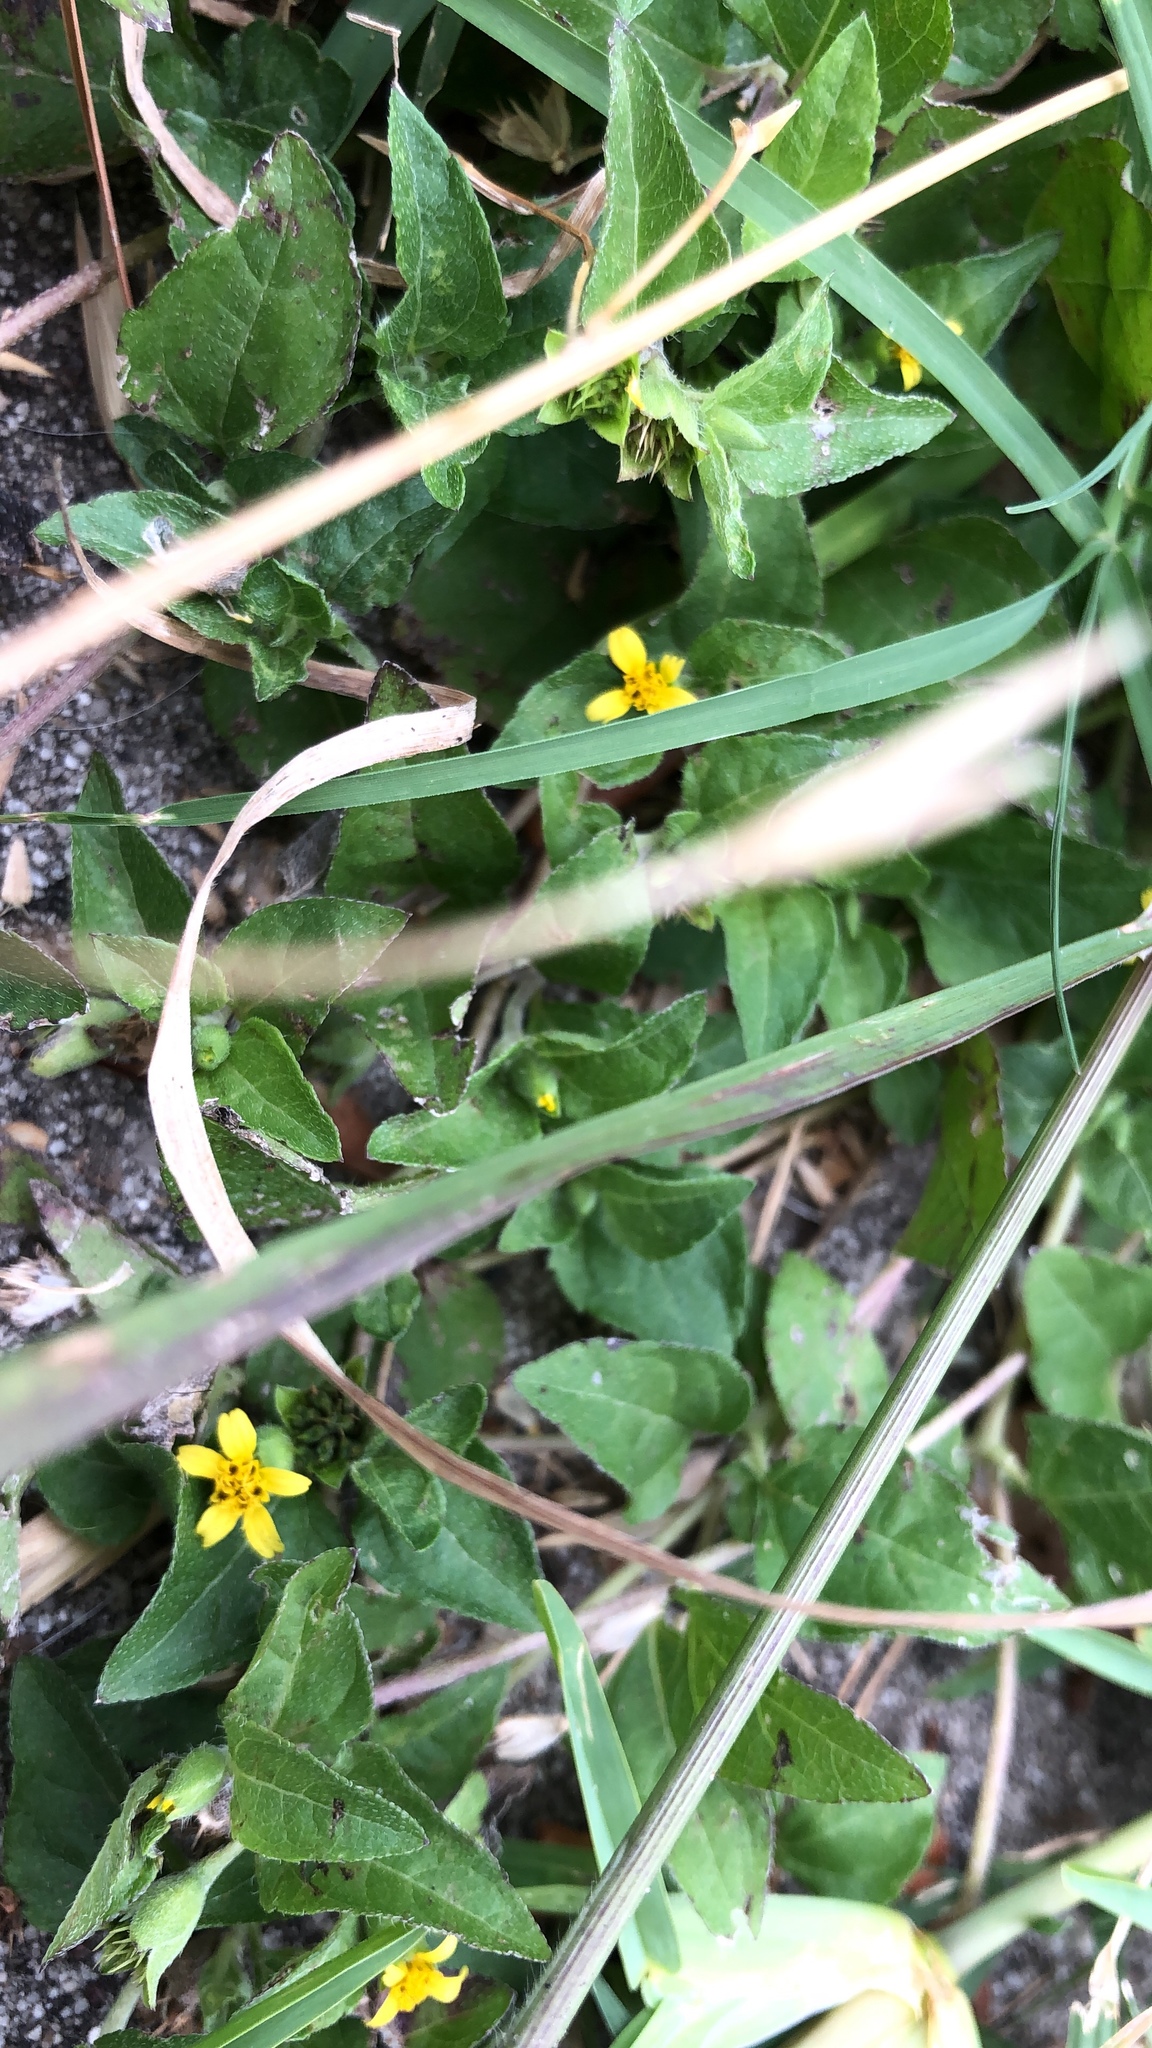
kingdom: Plantae
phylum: Tracheophyta
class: Magnoliopsida
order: Asterales
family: Asteraceae
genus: Calyptocarpus
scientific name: Calyptocarpus vialis
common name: Straggler daisy
